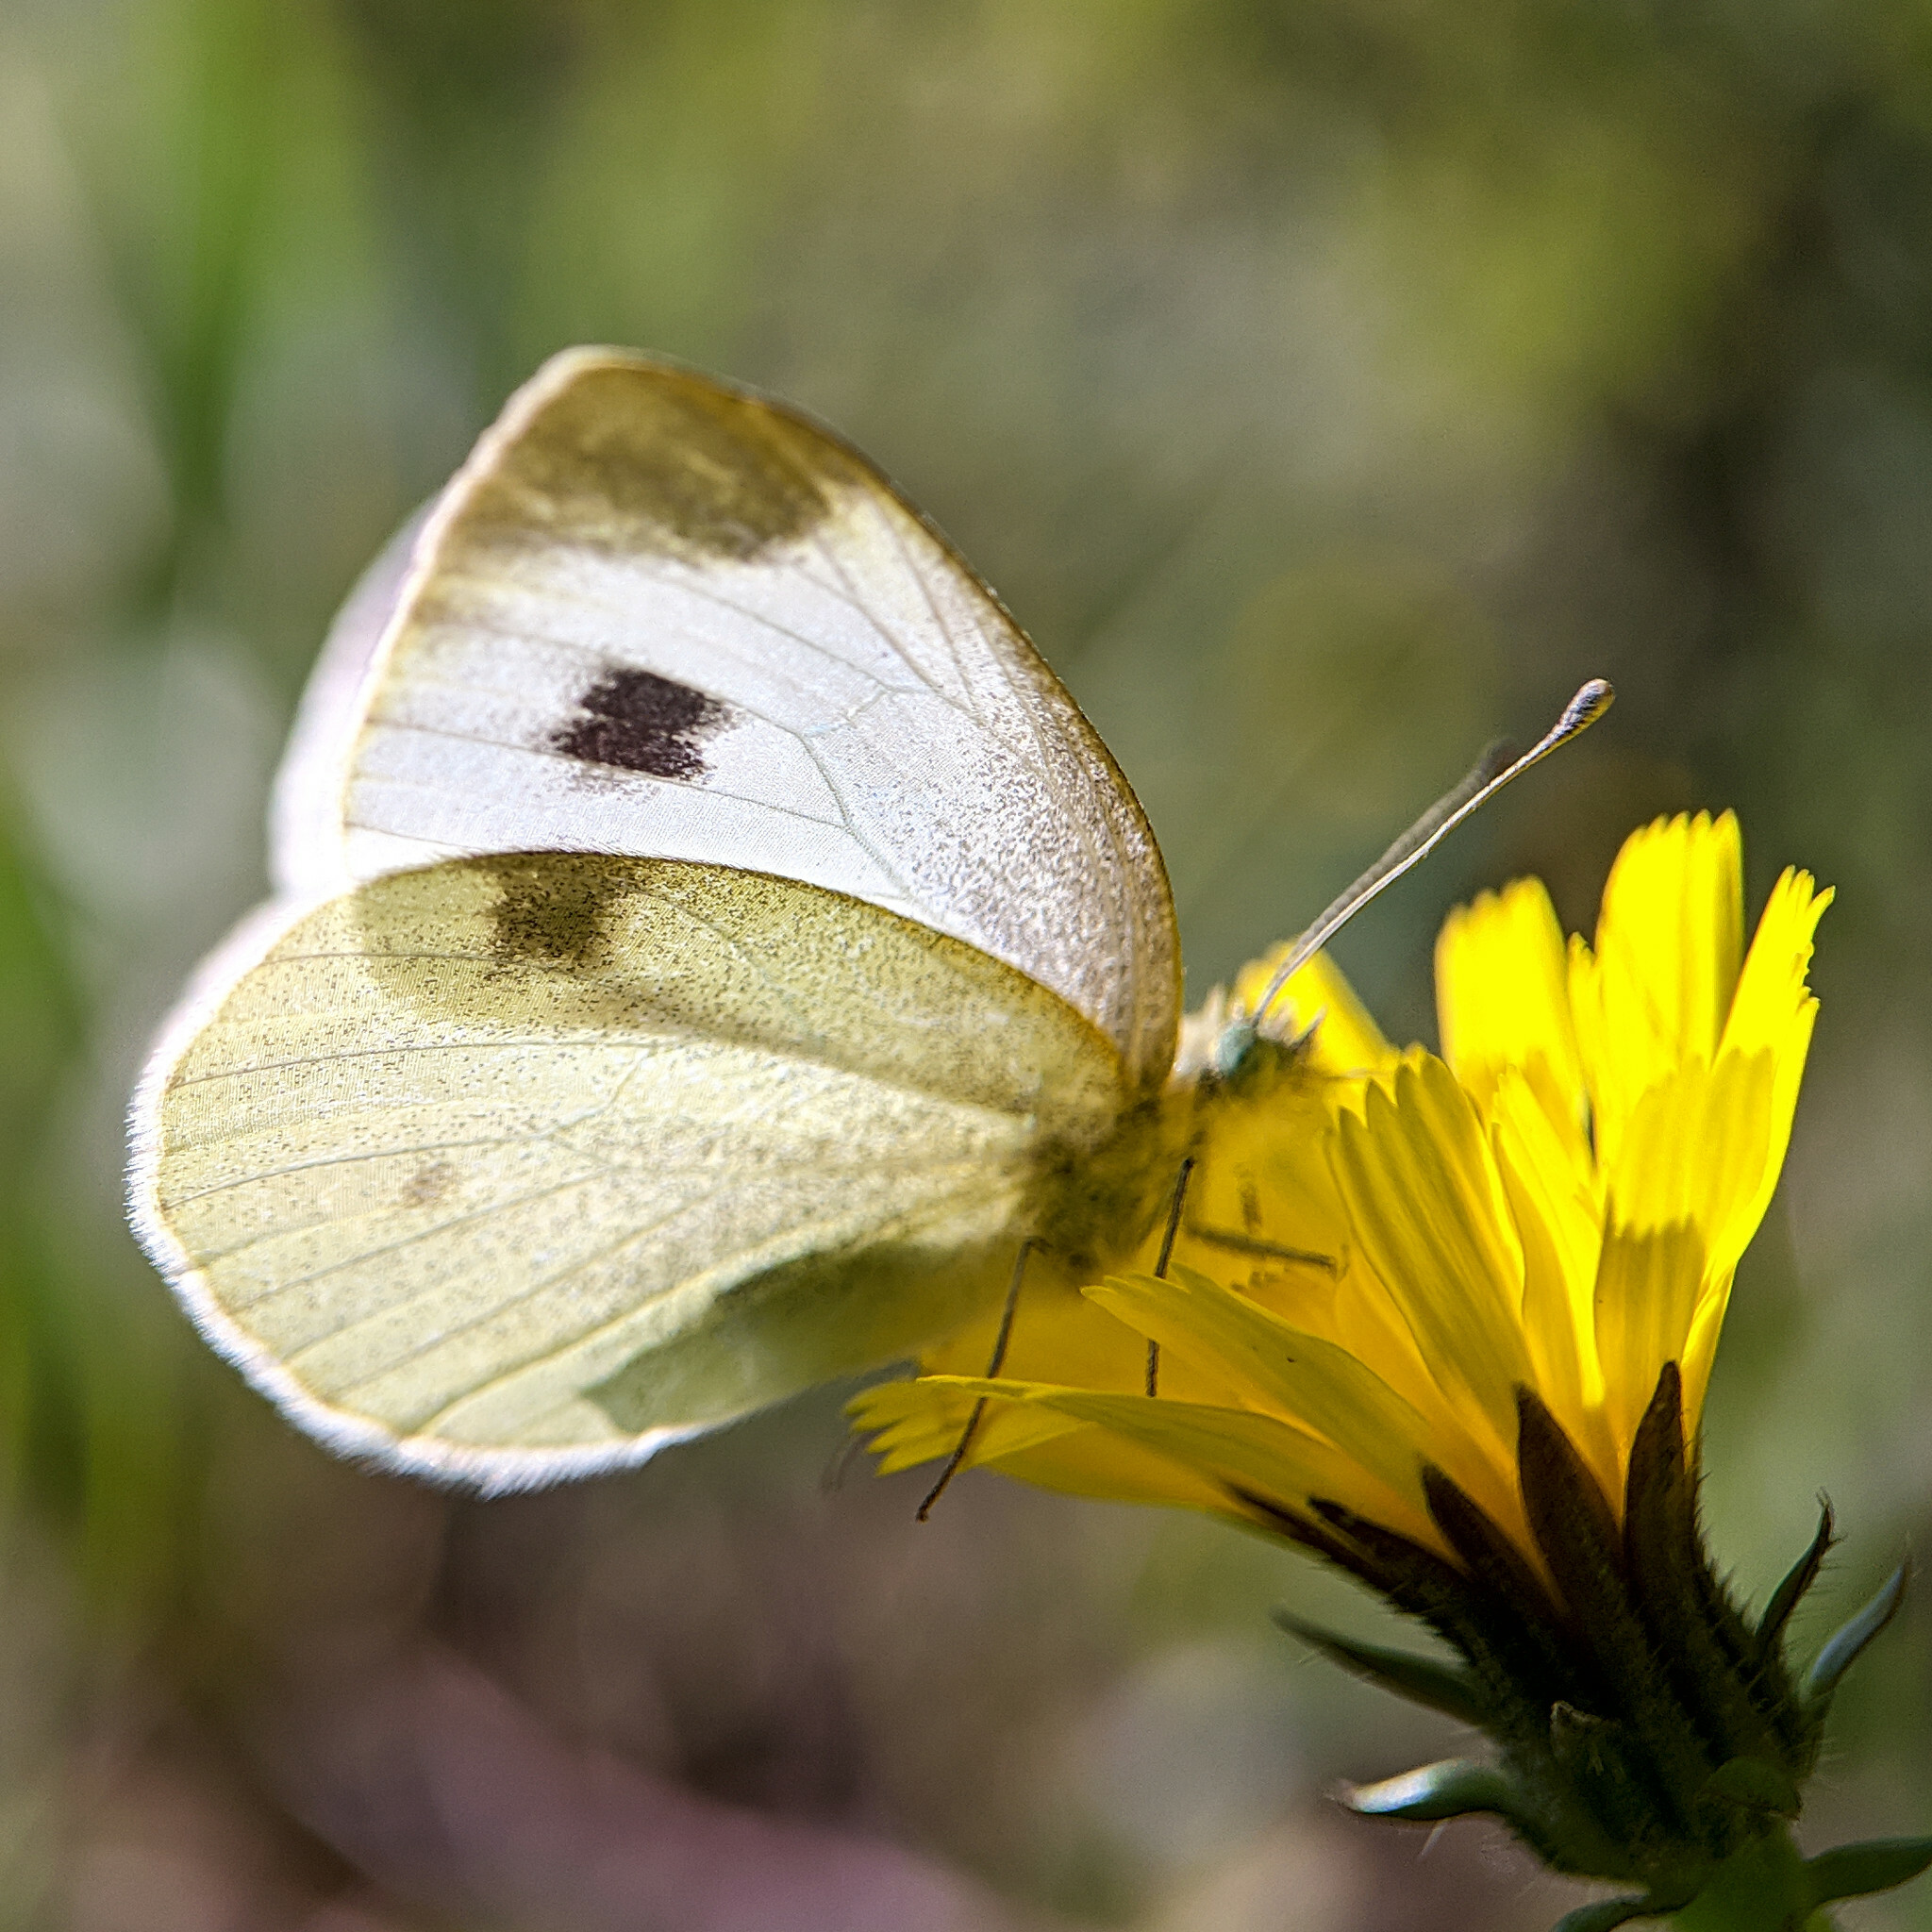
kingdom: Animalia
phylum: Arthropoda
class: Insecta
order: Lepidoptera
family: Pieridae
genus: Pieris
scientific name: Pieris mannii
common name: Southern small white
